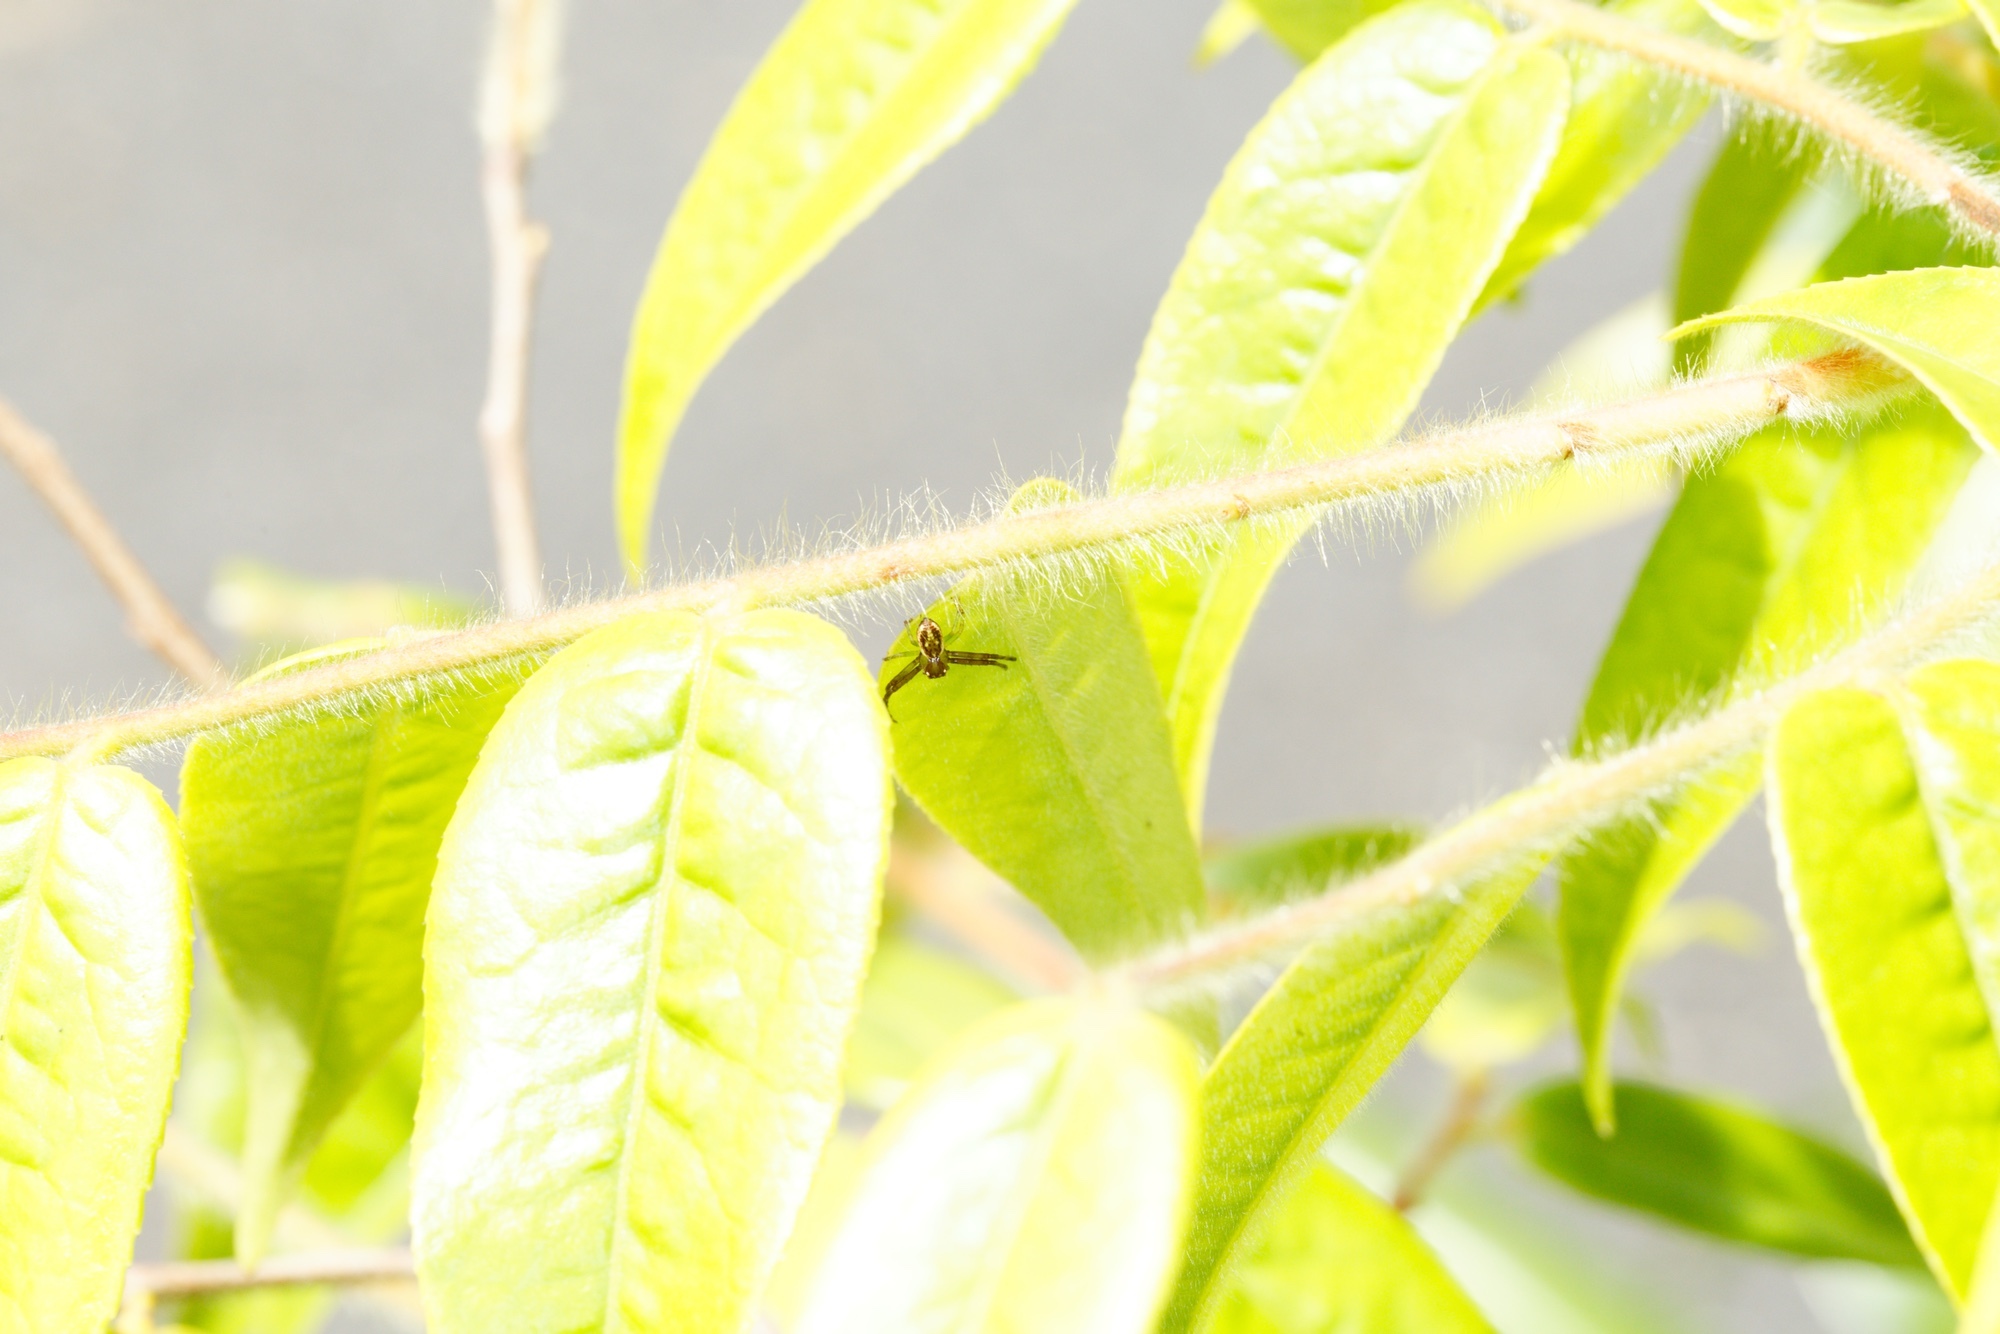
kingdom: Animalia
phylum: Arthropoda
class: Arachnida
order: Araneae
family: Thomisidae
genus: Diaea
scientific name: Diaea ambara
